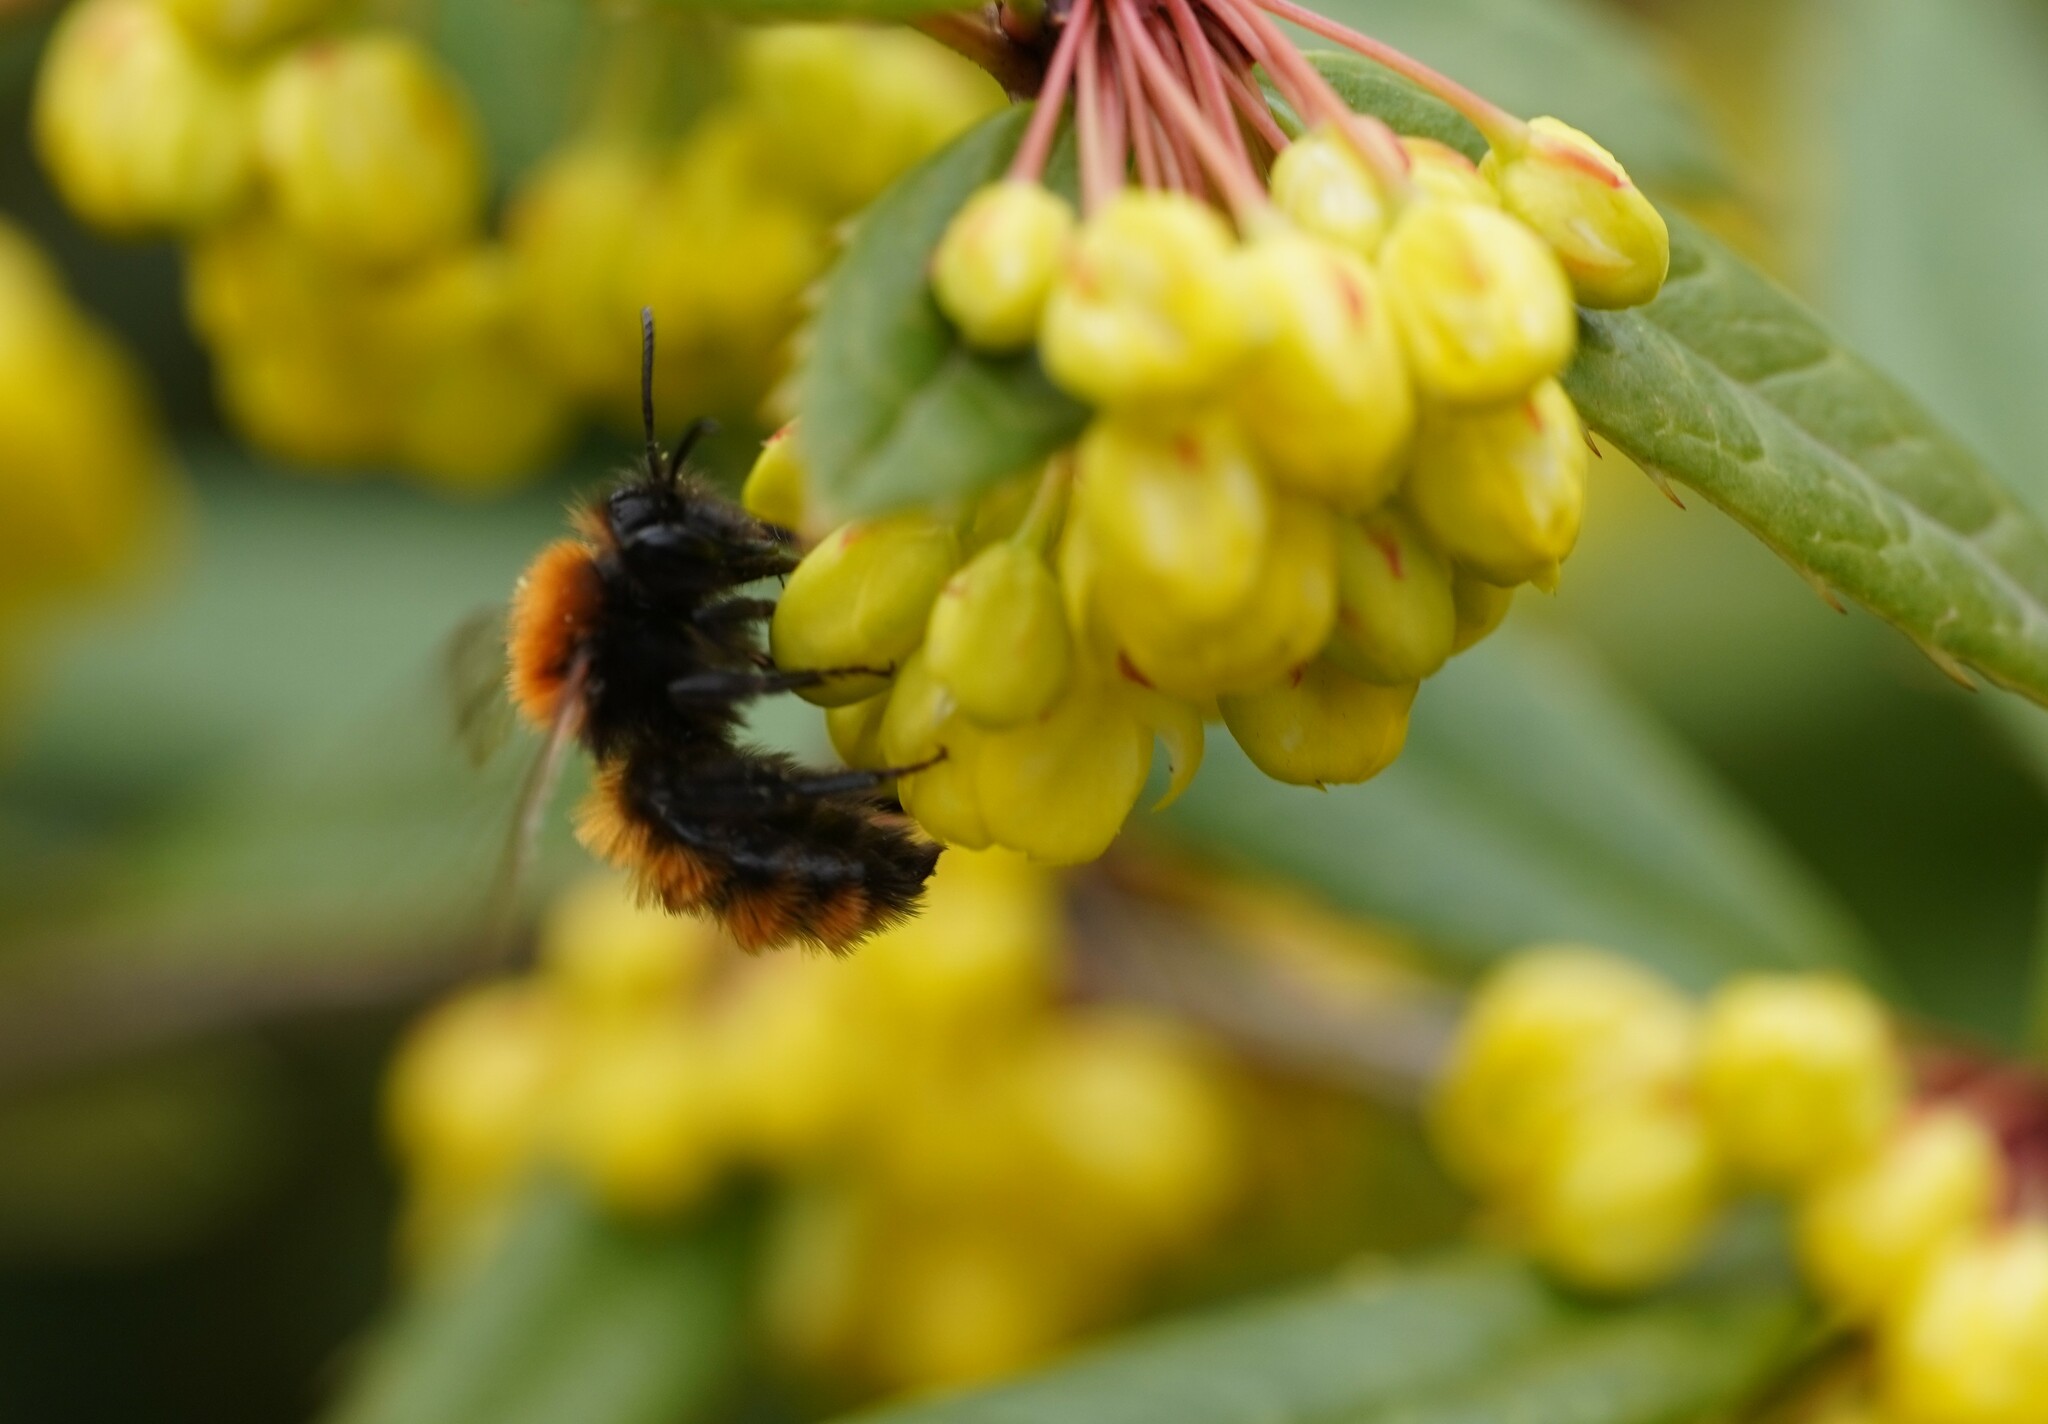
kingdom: Animalia
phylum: Arthropoda
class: Insecta
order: Hymenoptera
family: Andrenidae
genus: Andrena
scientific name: Andrena fulva
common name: Tawny mining bee
